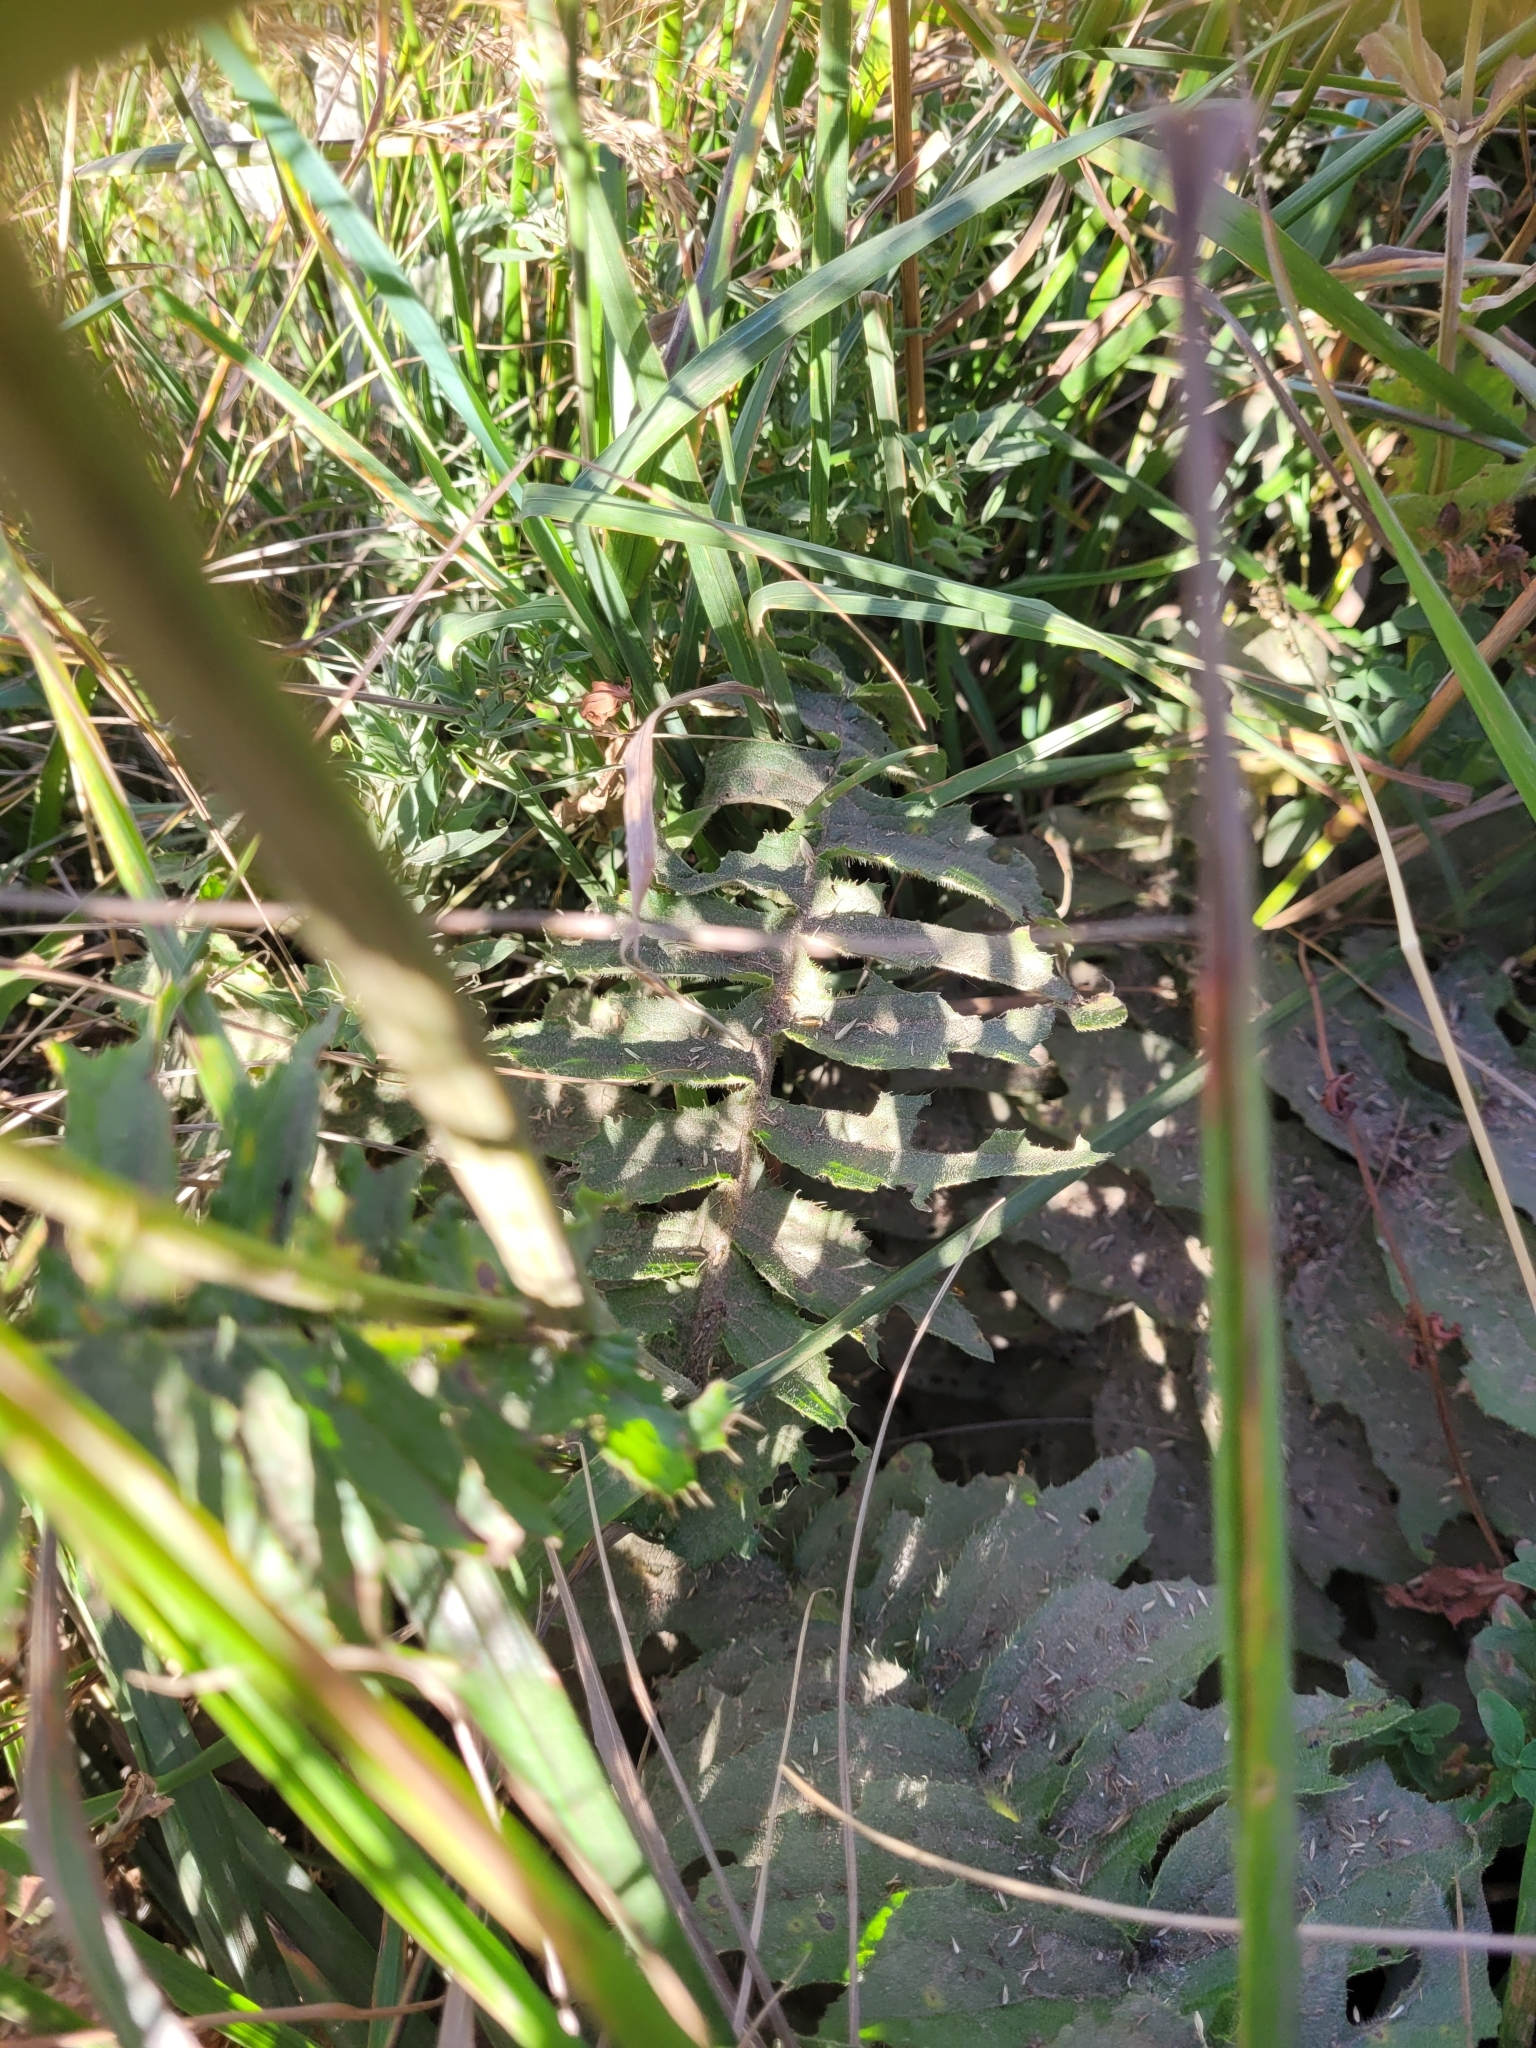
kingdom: Plantae
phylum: Tracheophyta
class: Magnoliopsida
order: Asterales
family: Asteraceae
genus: Cirsium
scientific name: Cirsium erisithales
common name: Yellow thistle
